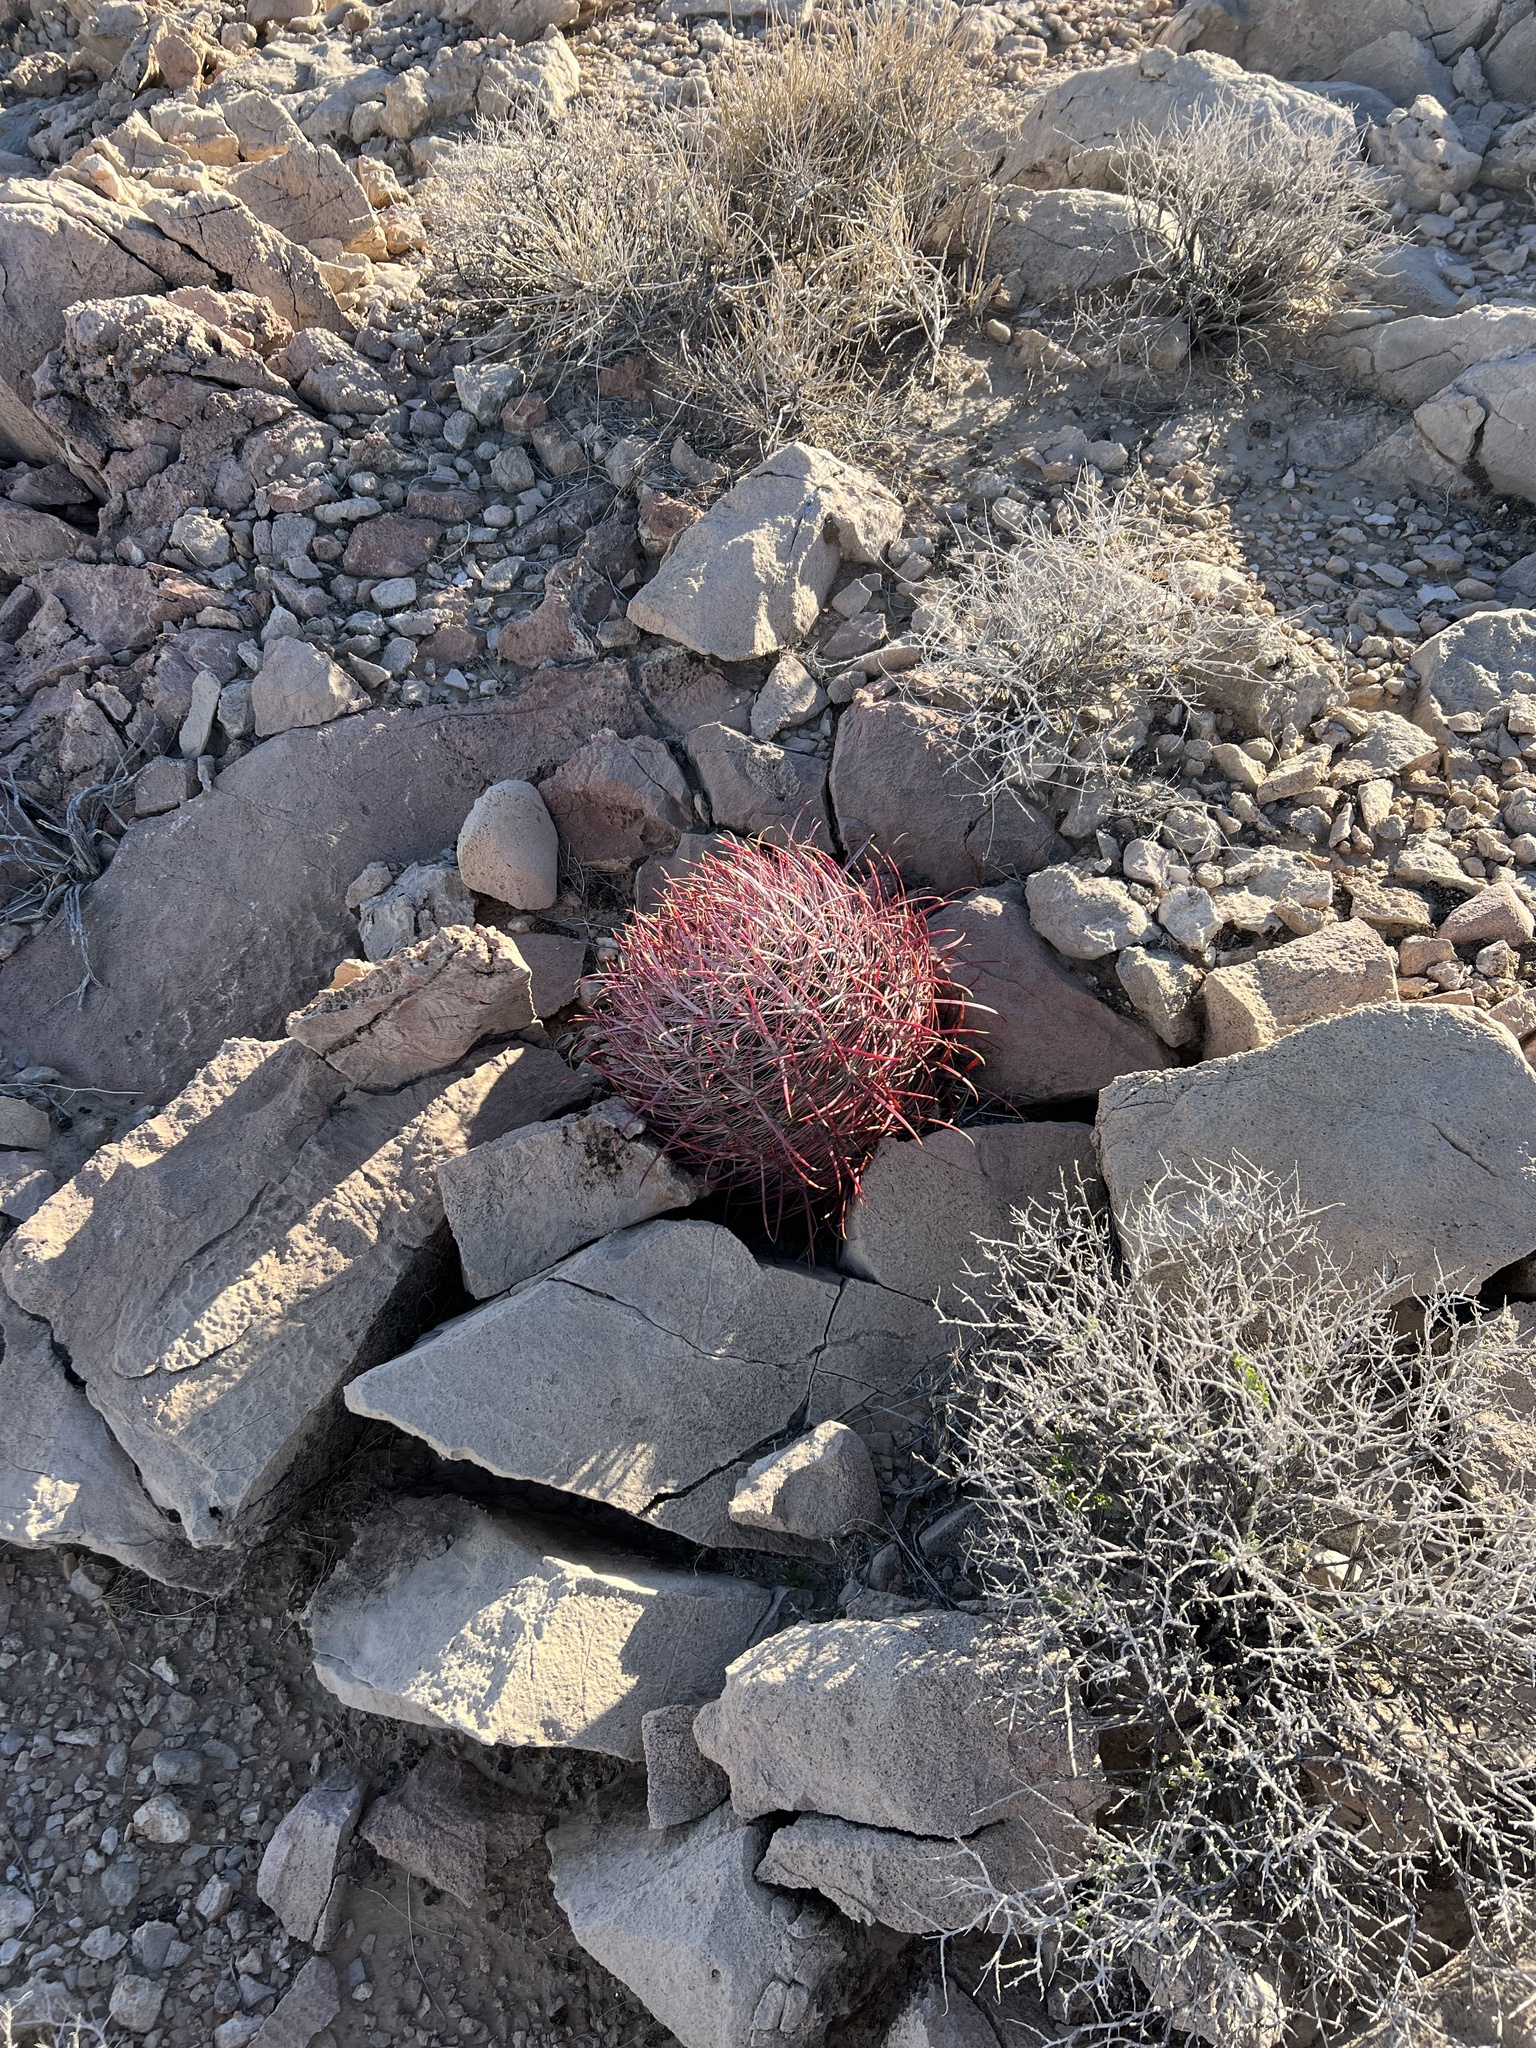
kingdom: Plantae
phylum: Tracheophyta
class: Magnoliopsida
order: Caryophyllales
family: Cactaceae
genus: Ferocactus
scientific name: Ferocactus cylindraceus
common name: California barrel cactus
